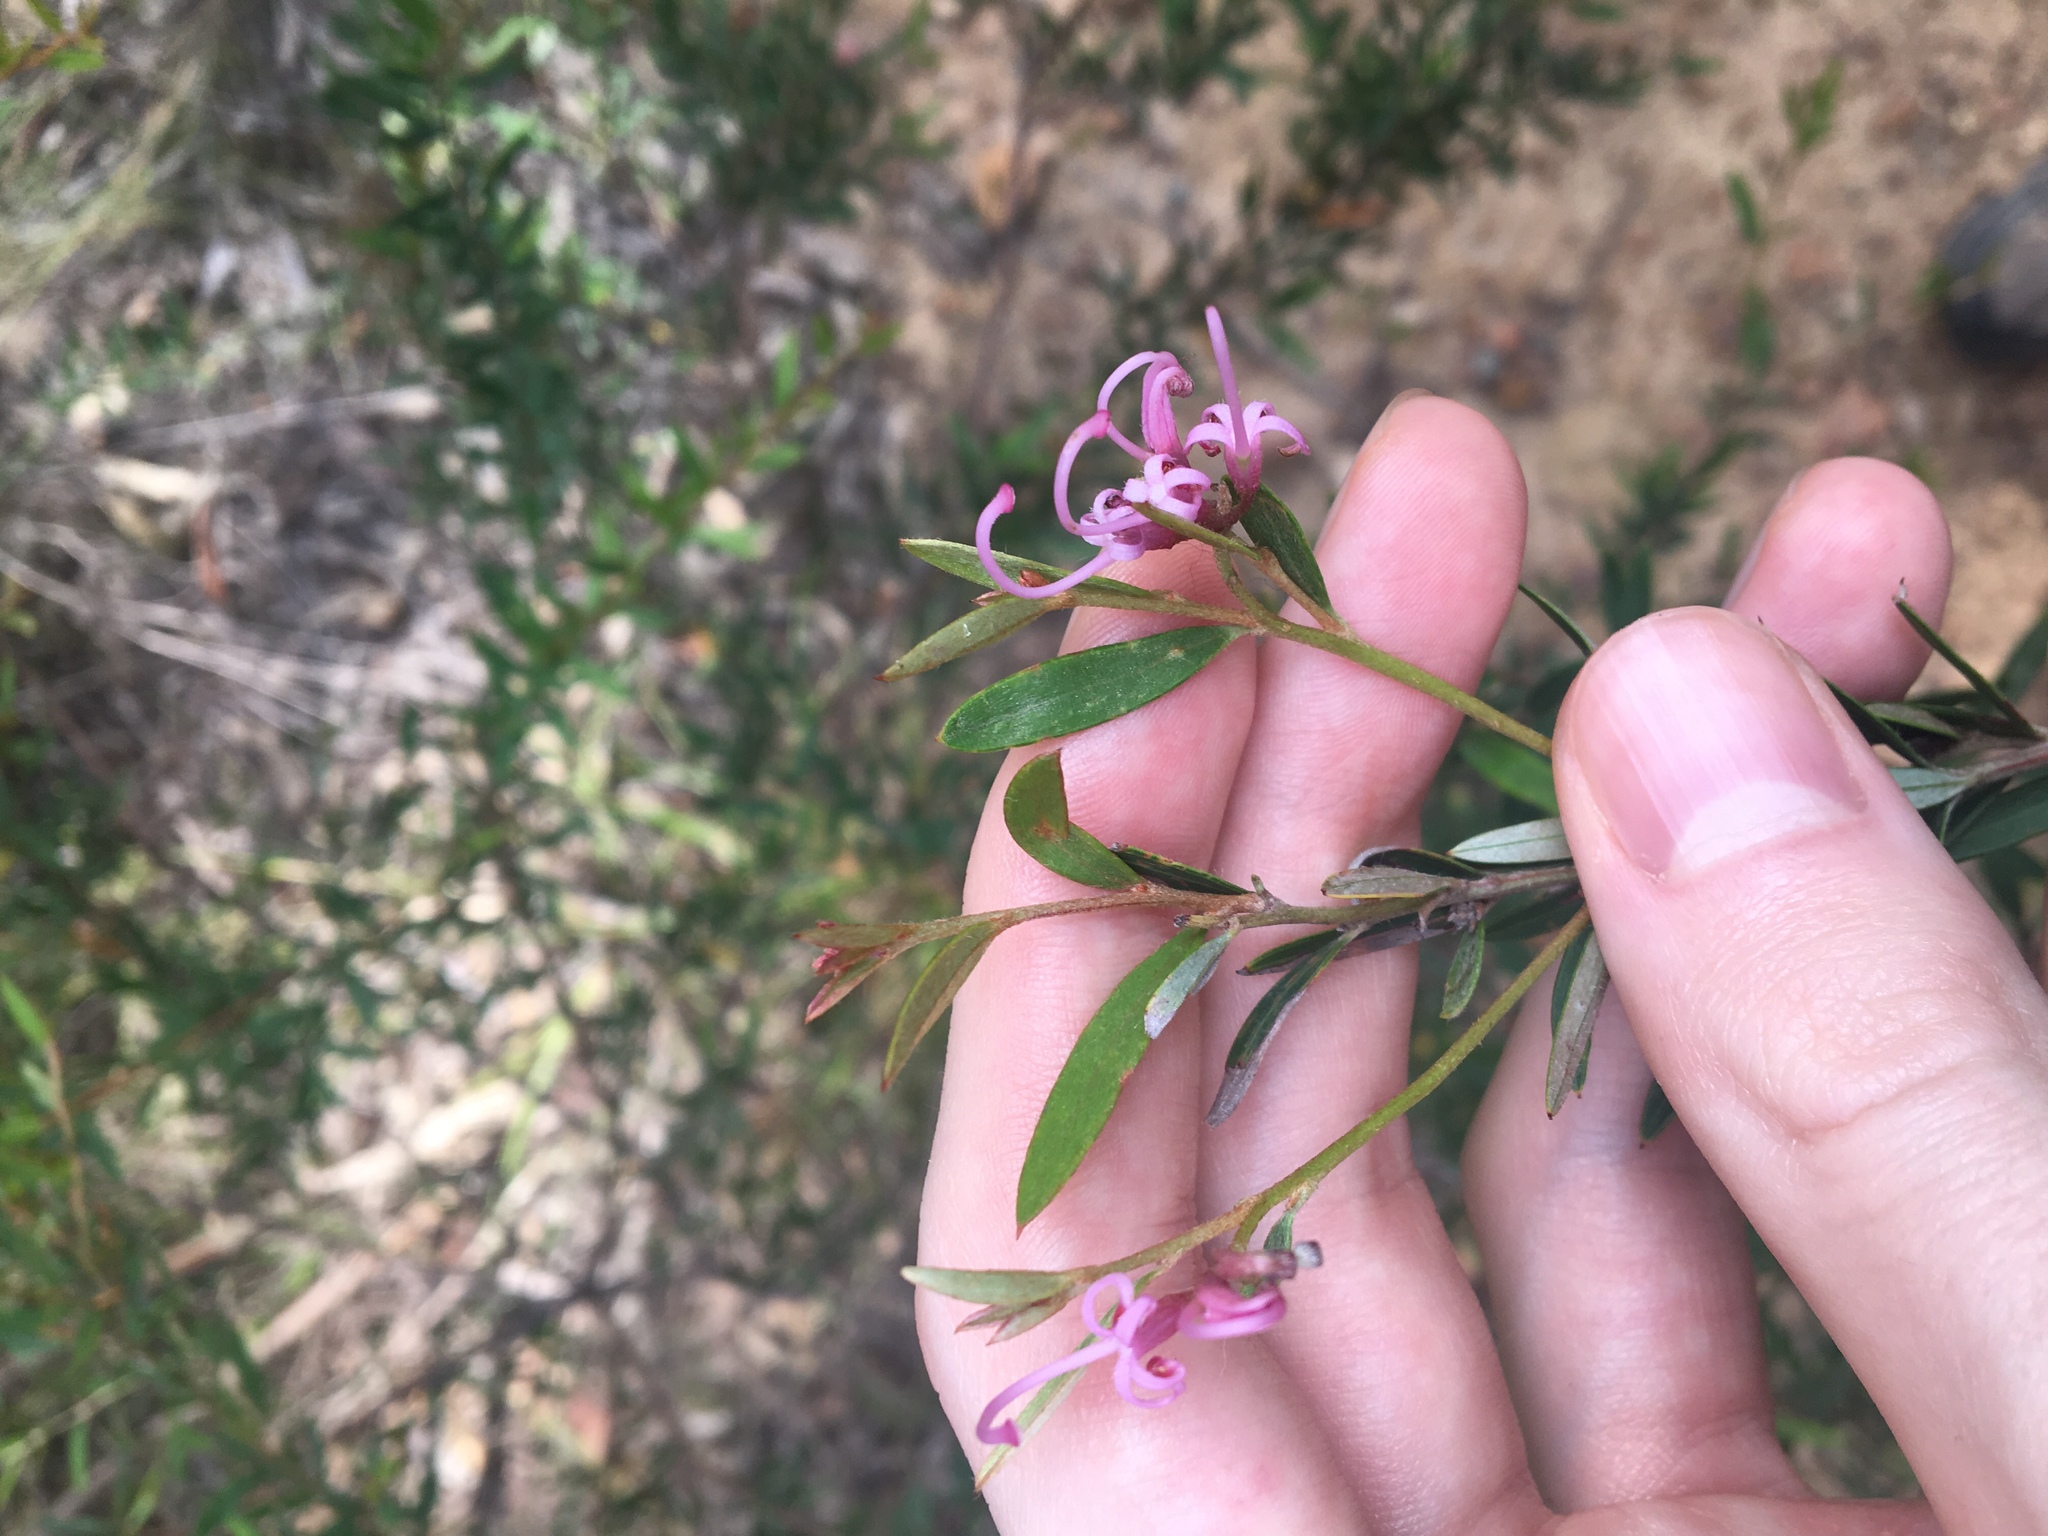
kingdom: Plantae
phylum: Tracheophyta
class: Magnoliopsida
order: Proteales
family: Proteaceae
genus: Grevillea
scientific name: Grevillea sericea
